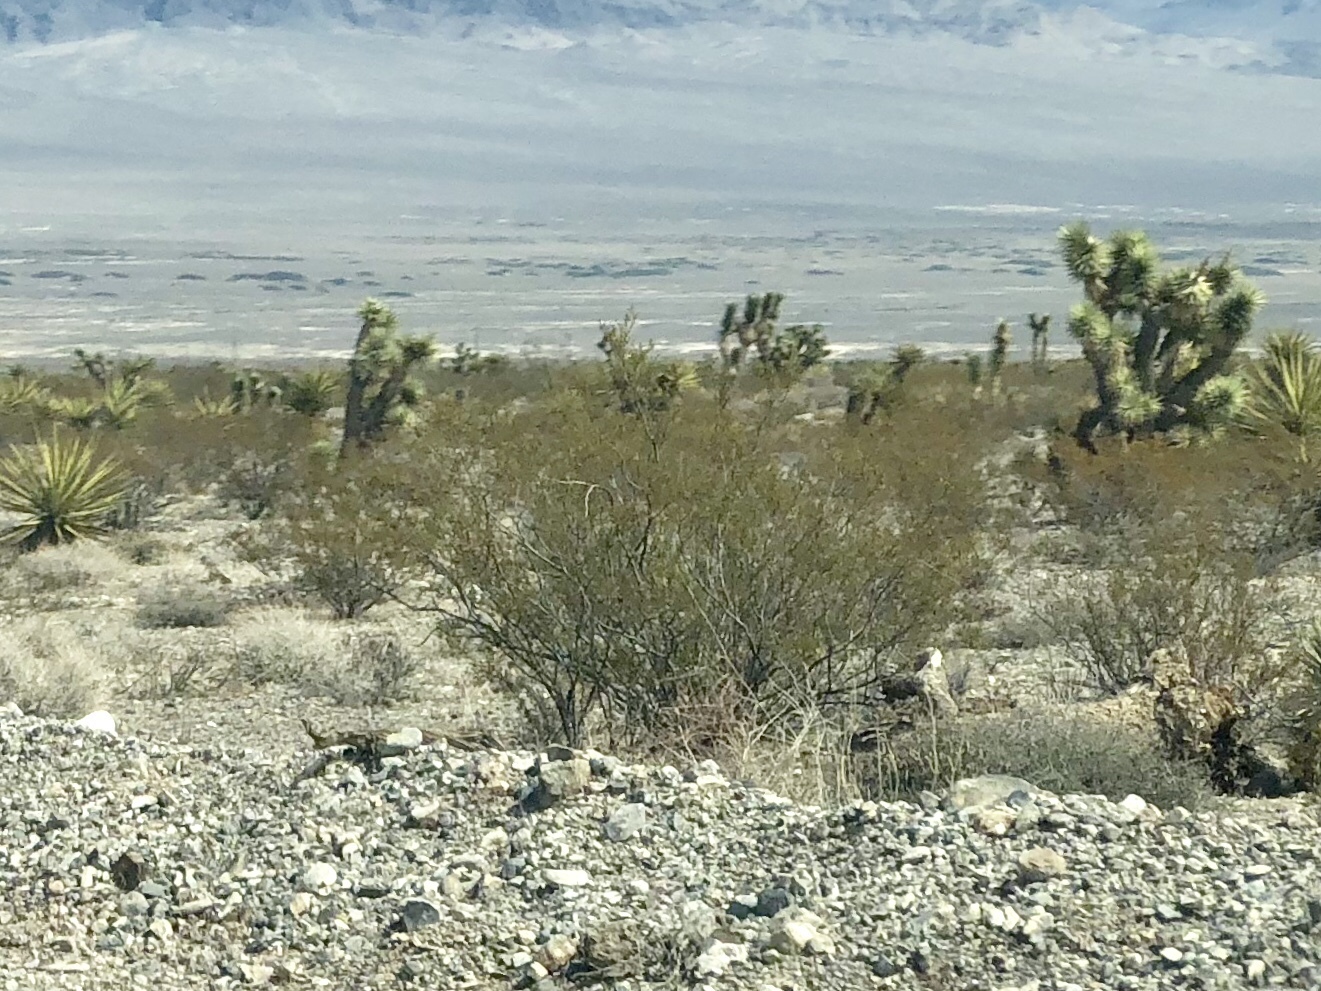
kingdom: Plantae
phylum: Tracheophyta
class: Magnoliopsida
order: Zygophyllales
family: Zygophyllaceae
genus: Larrea
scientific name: Larrea tridentata
